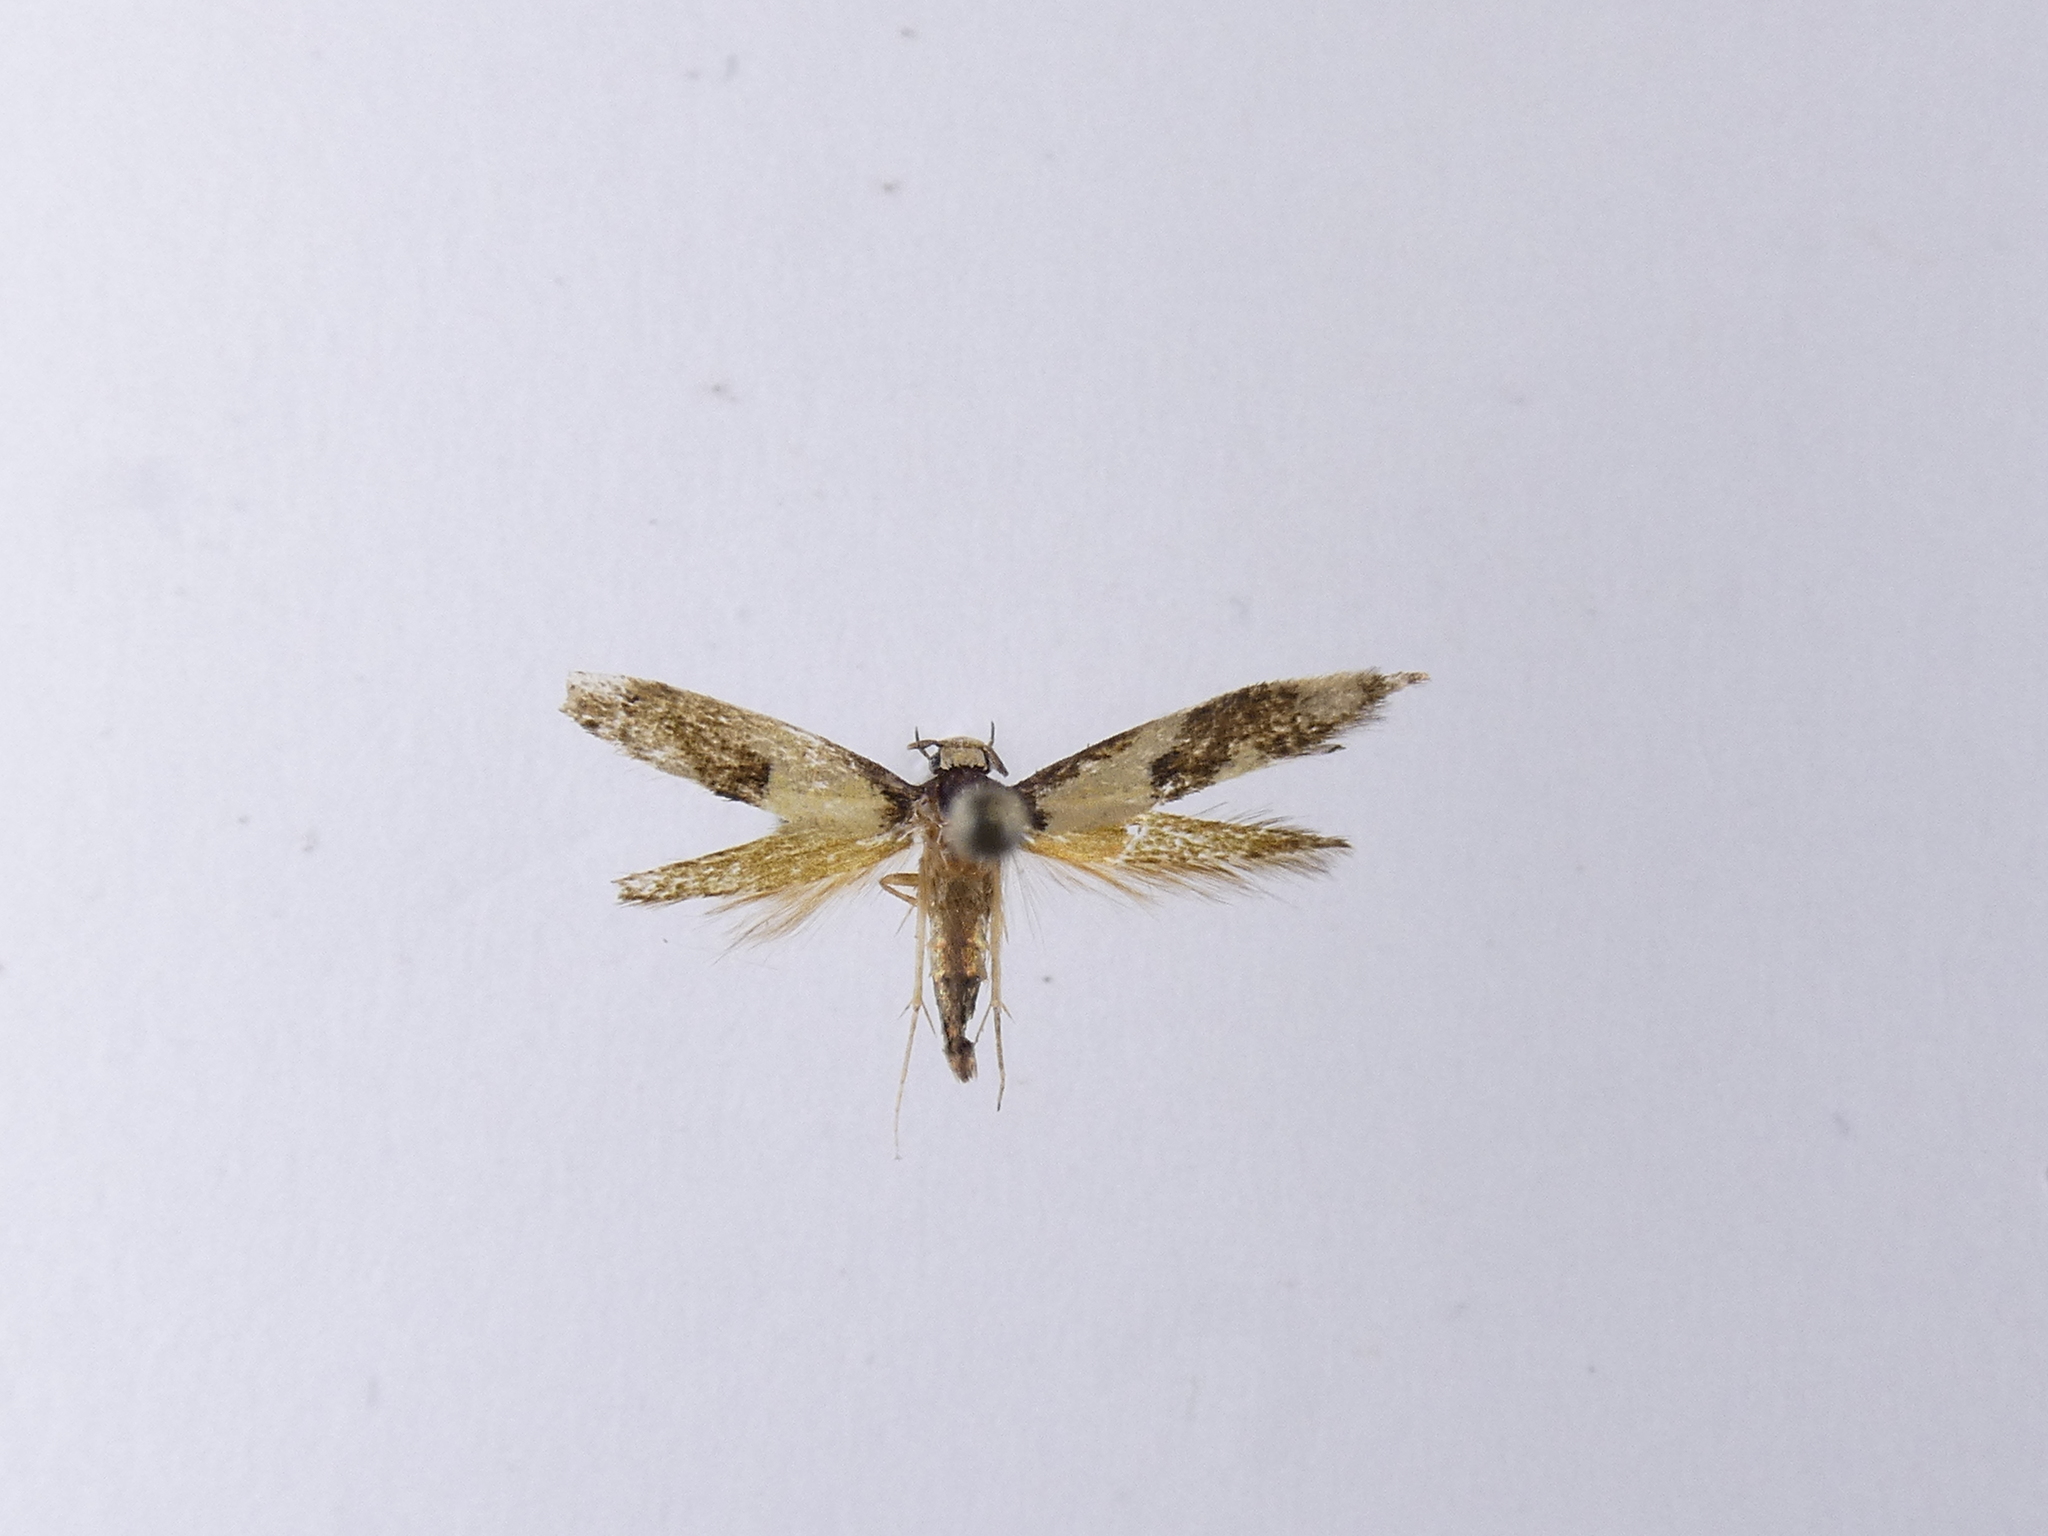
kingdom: Animalia
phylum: Arthropoda
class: Insecta
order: Lepidoptera
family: Tineidae
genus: Opogona
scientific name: Opogona comptella
